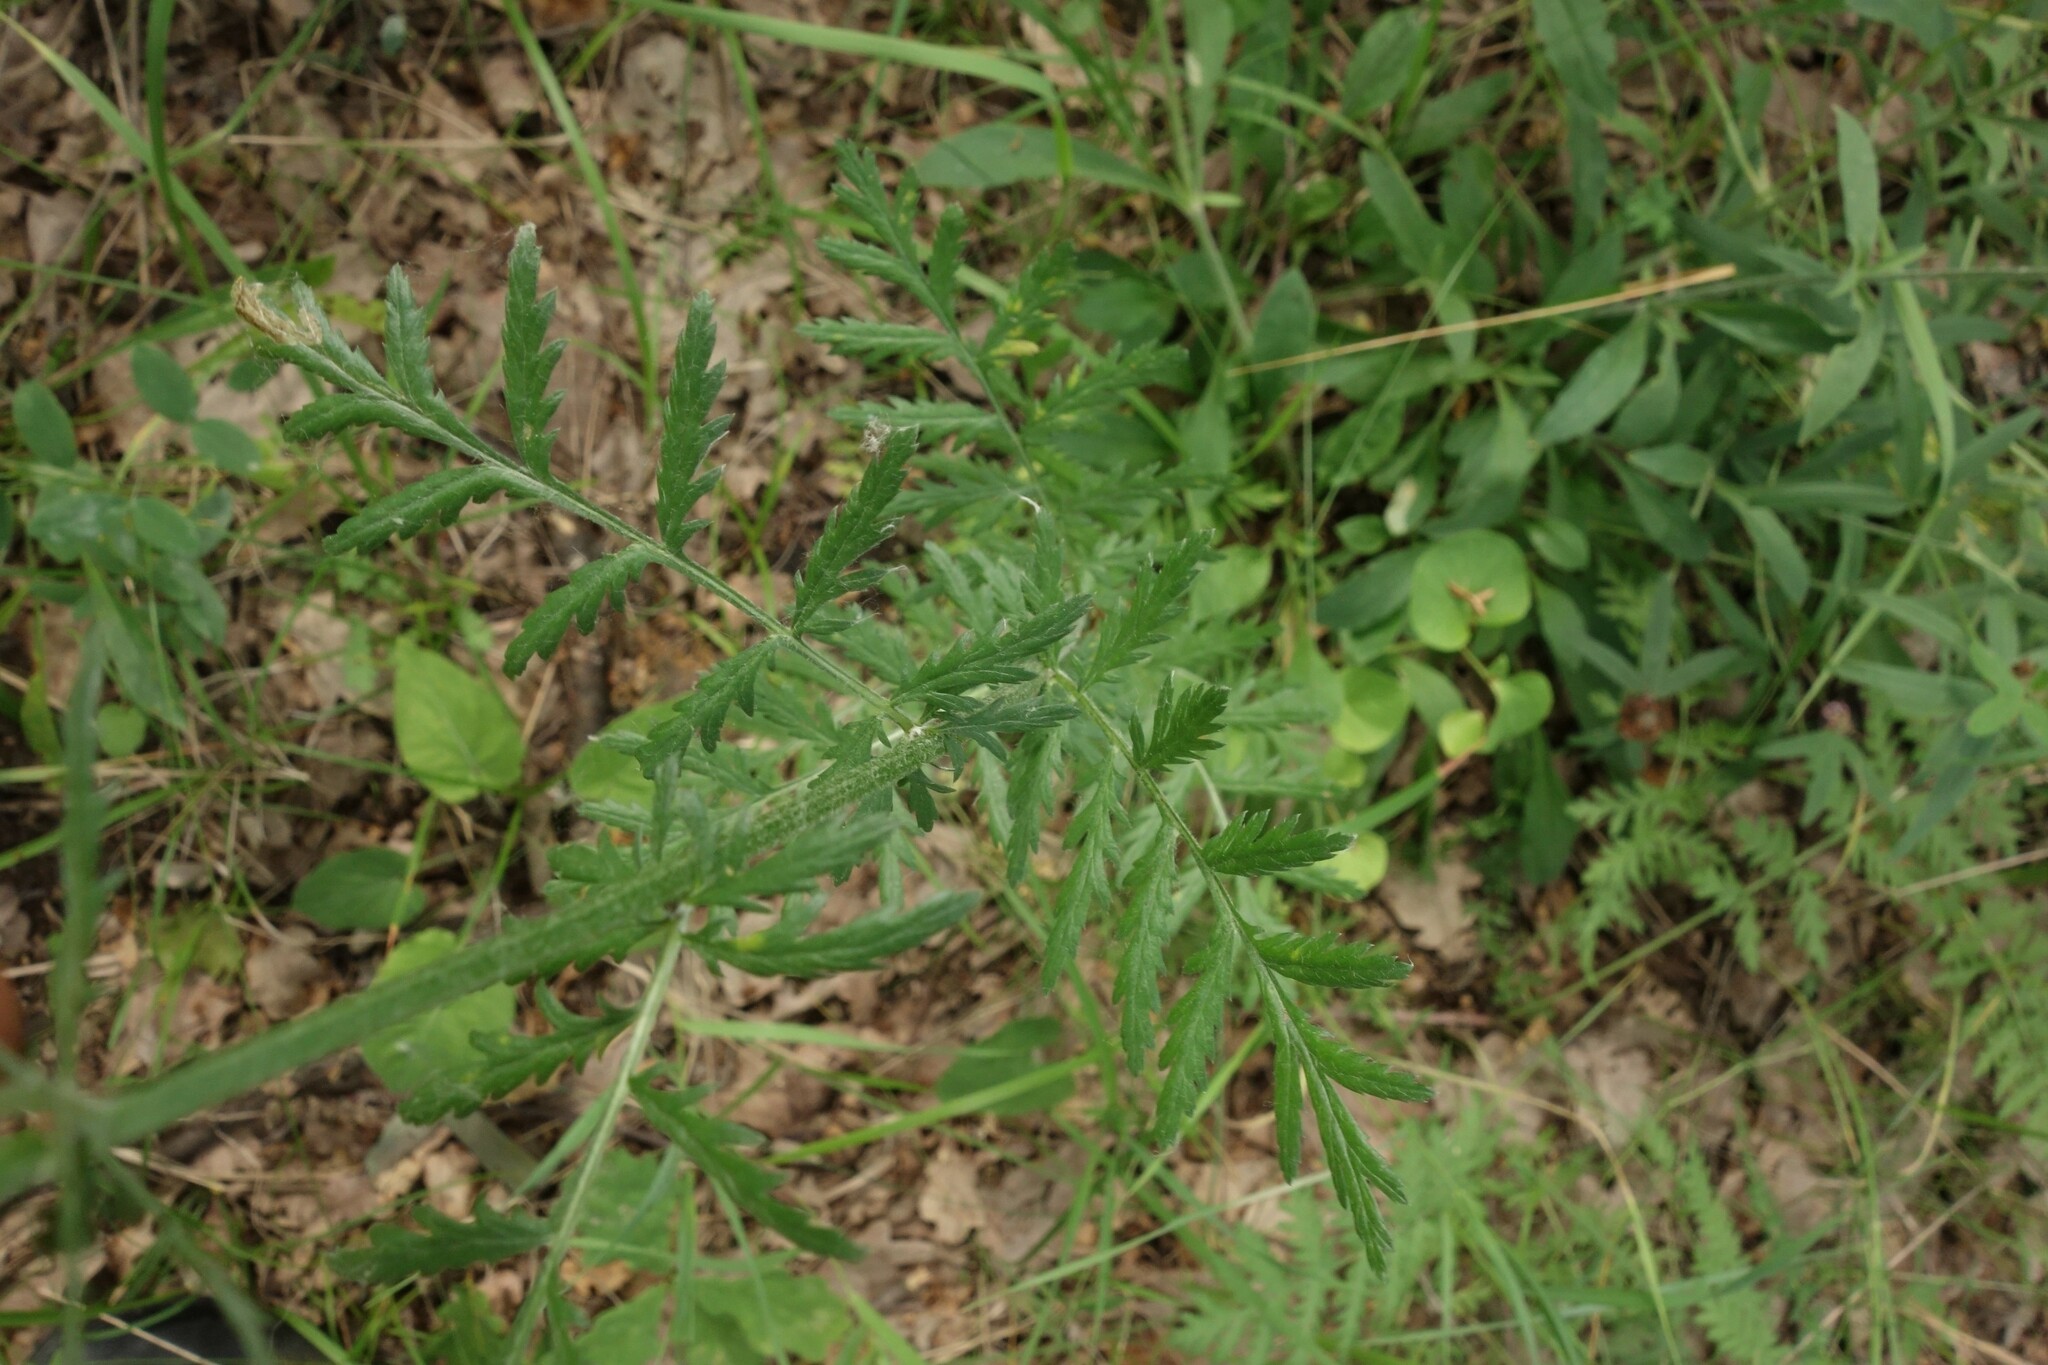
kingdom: Plantae
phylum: Tracheophyta
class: Magnoliopsida
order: Asterales
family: Asteraceae
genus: Tanacetum
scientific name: Tanacetum corymbosum
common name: Scentless feverfew
